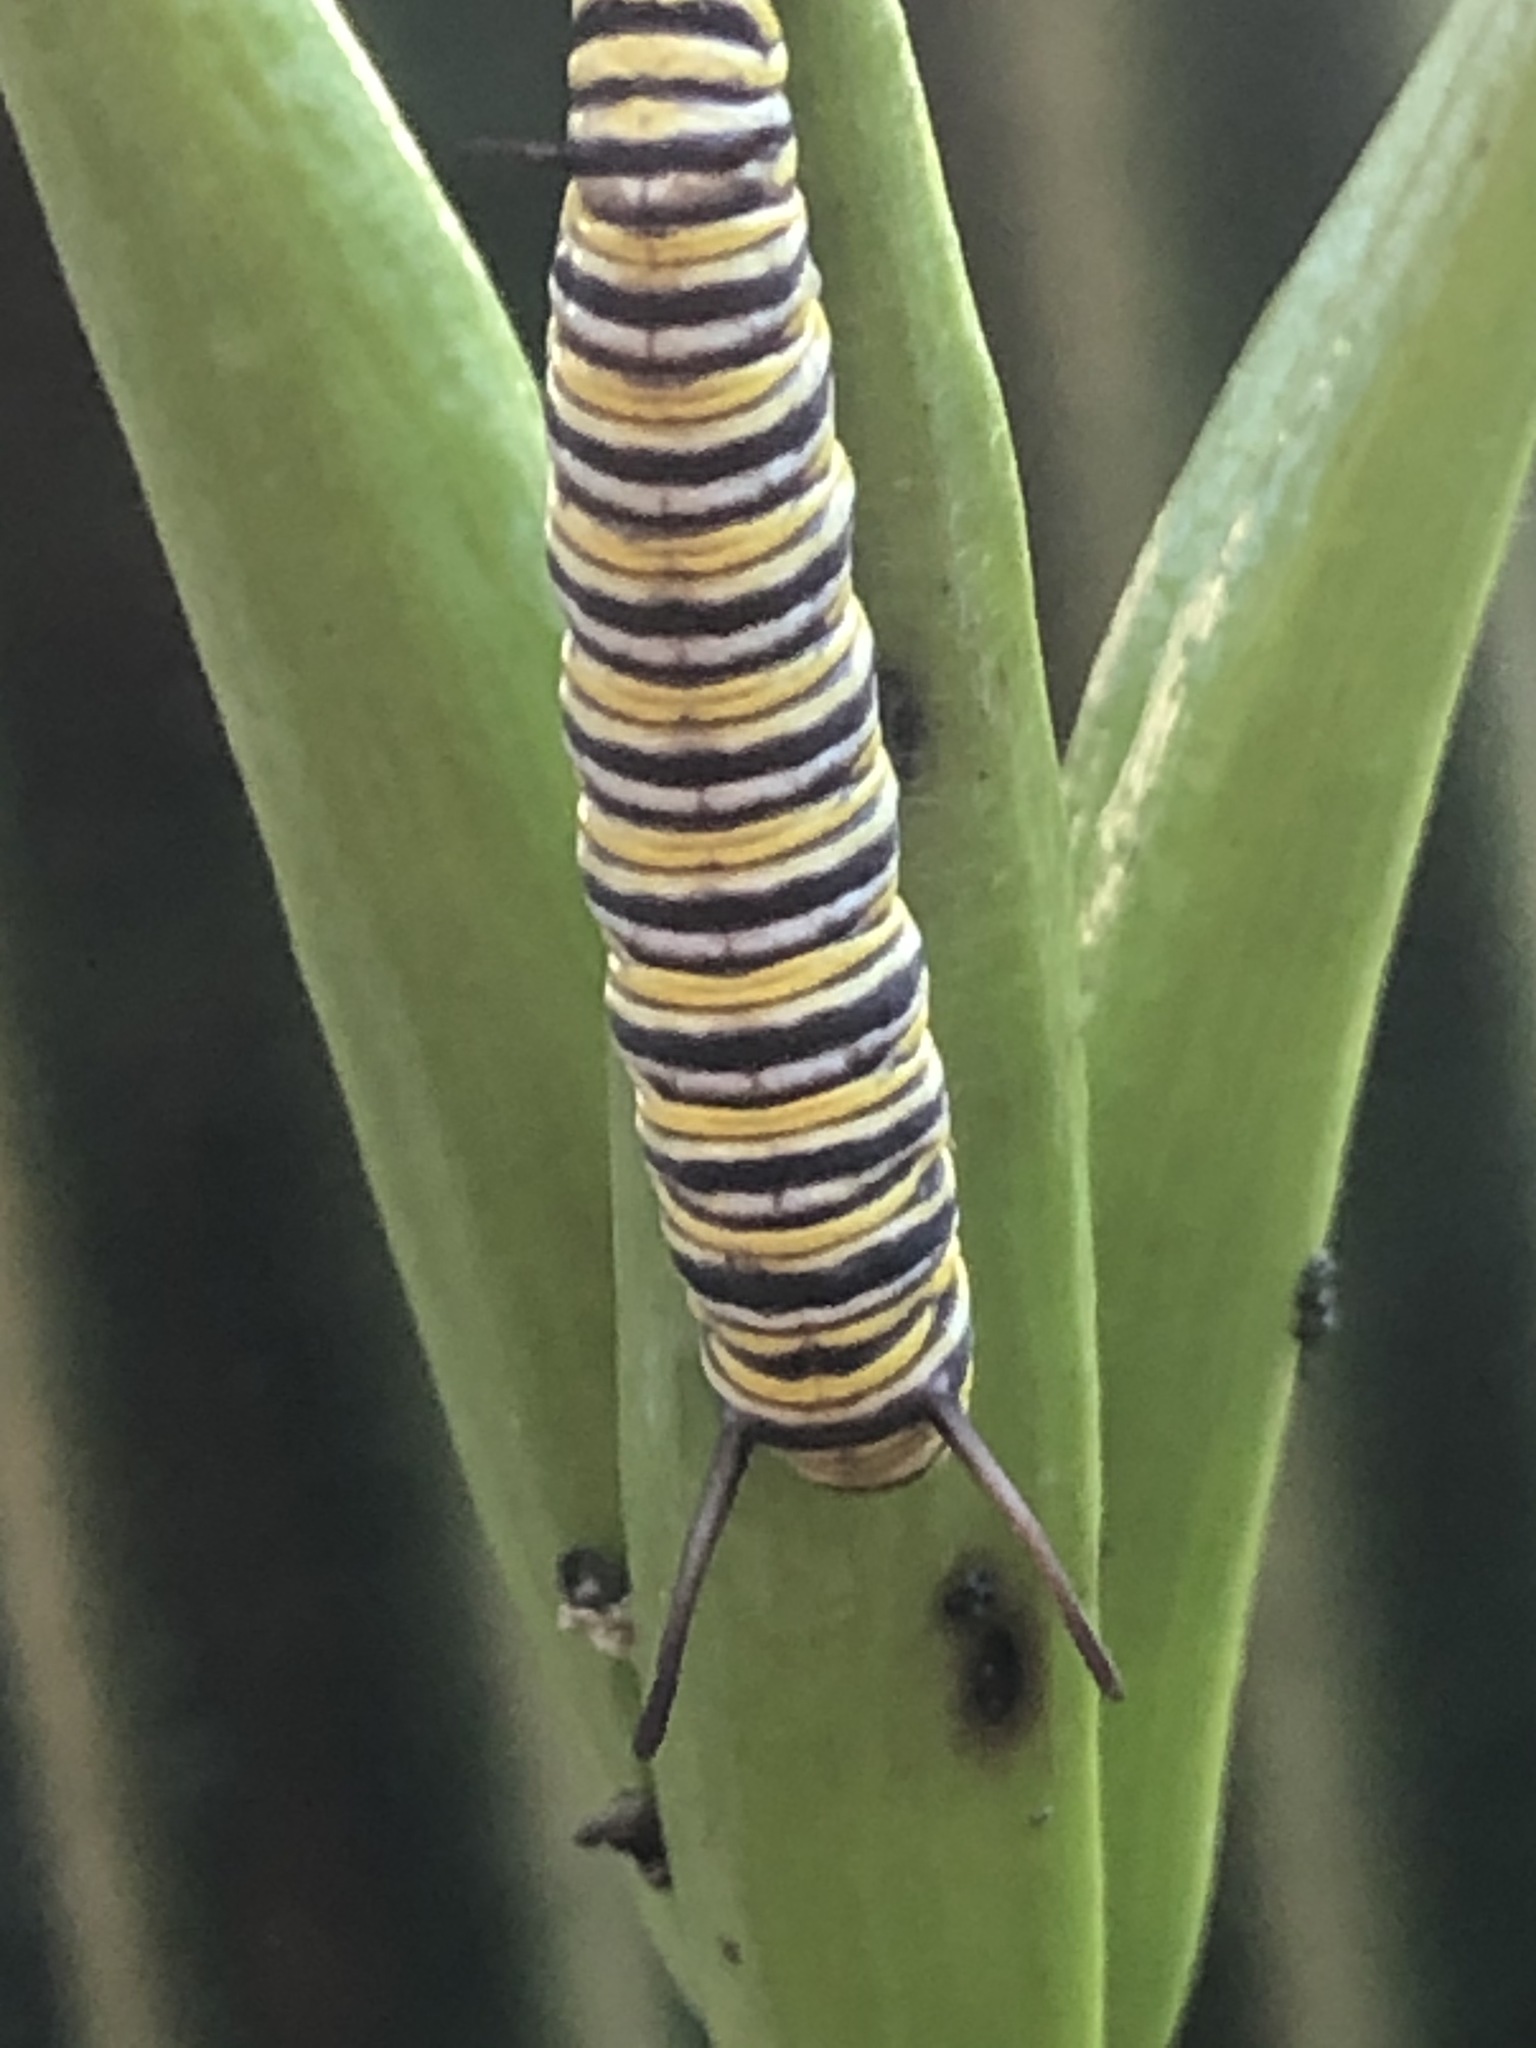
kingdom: Animalia
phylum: Arthropoda
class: Insecta
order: Lepidoptera
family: Nymphalidae
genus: Danaus
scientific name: Danaus plexippus
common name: Monarch
